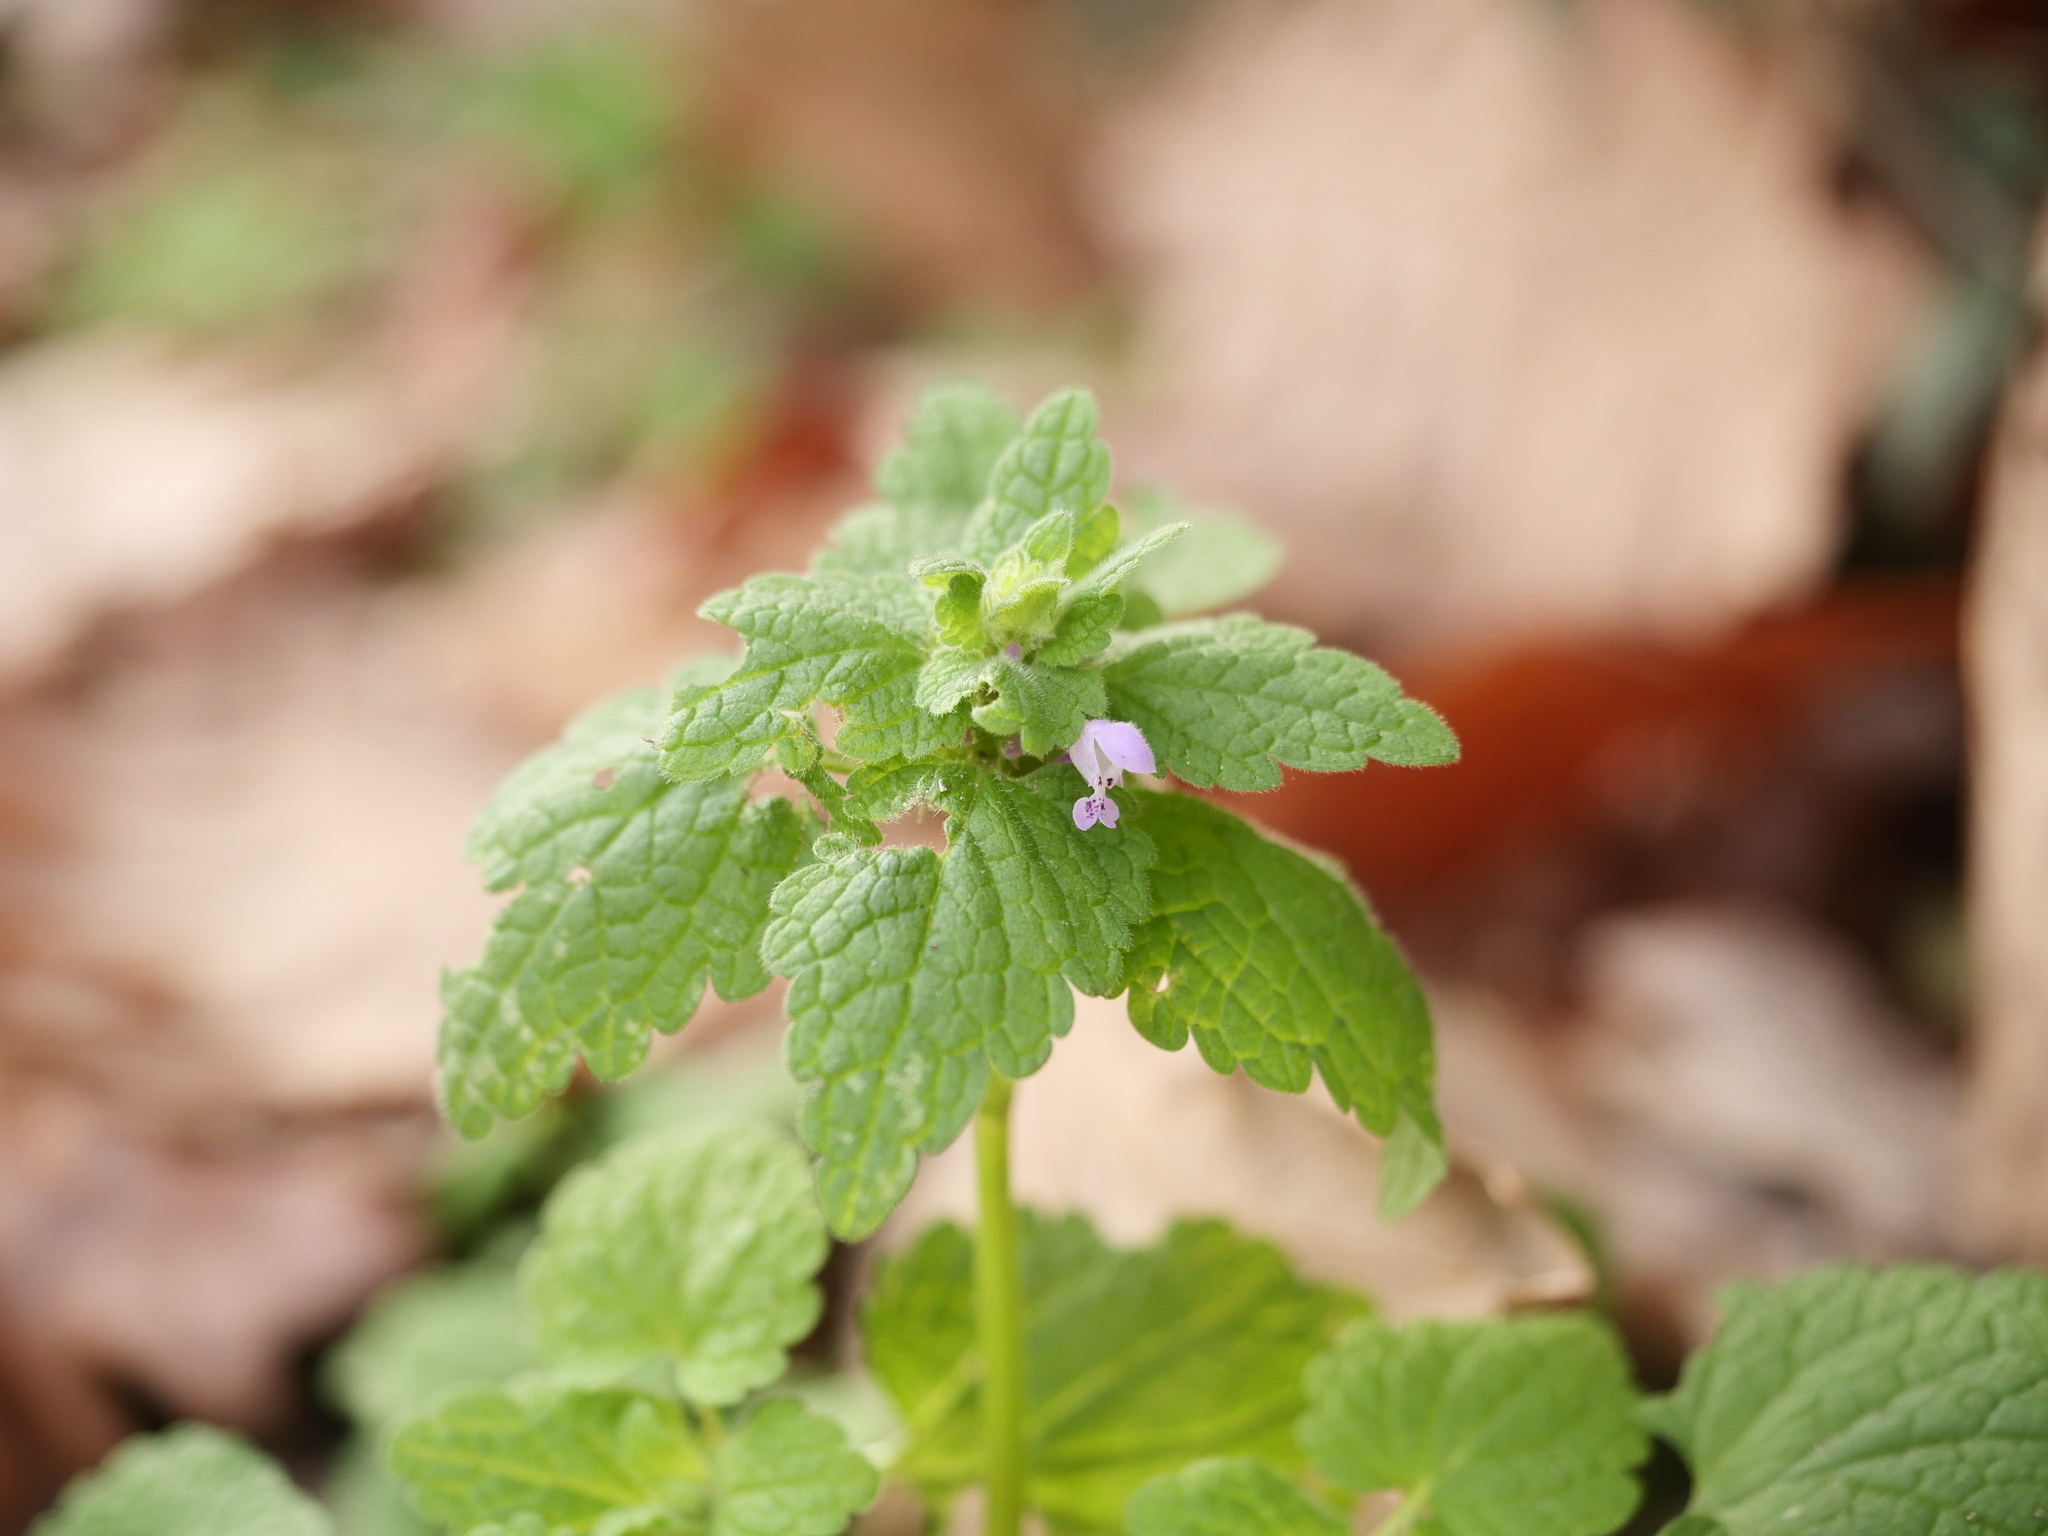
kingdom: Plantae
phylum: Tracheophyta
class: Magnoliopsida
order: Lamiales
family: Lamiaceae
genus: Lamium
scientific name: Lamium purpureum
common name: Red dead-nettle
